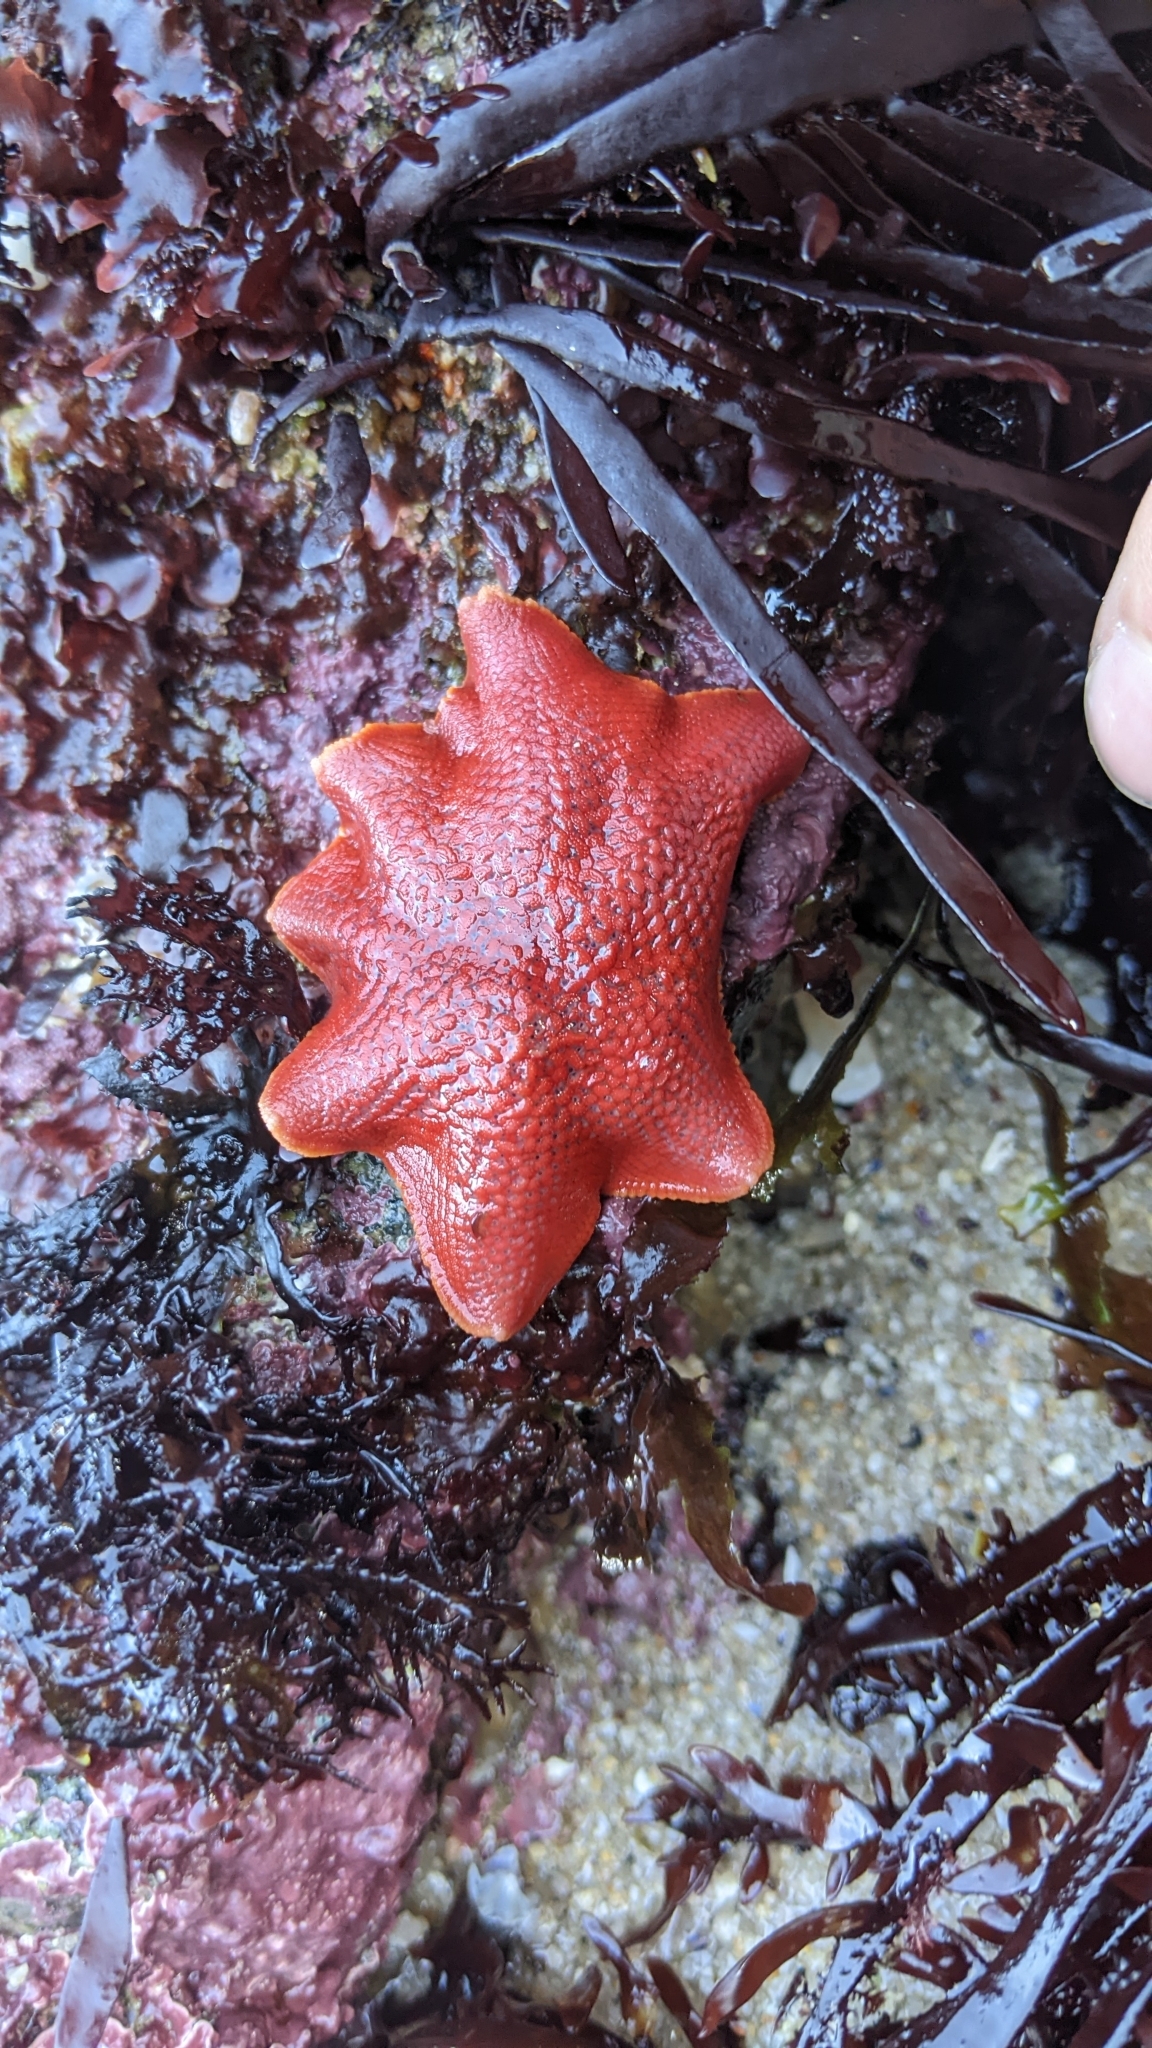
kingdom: Animalia
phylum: Echinodermata
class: Asteroidea
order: Valvatida
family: Asterinidae
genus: Patiria
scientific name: Patiria miniata
